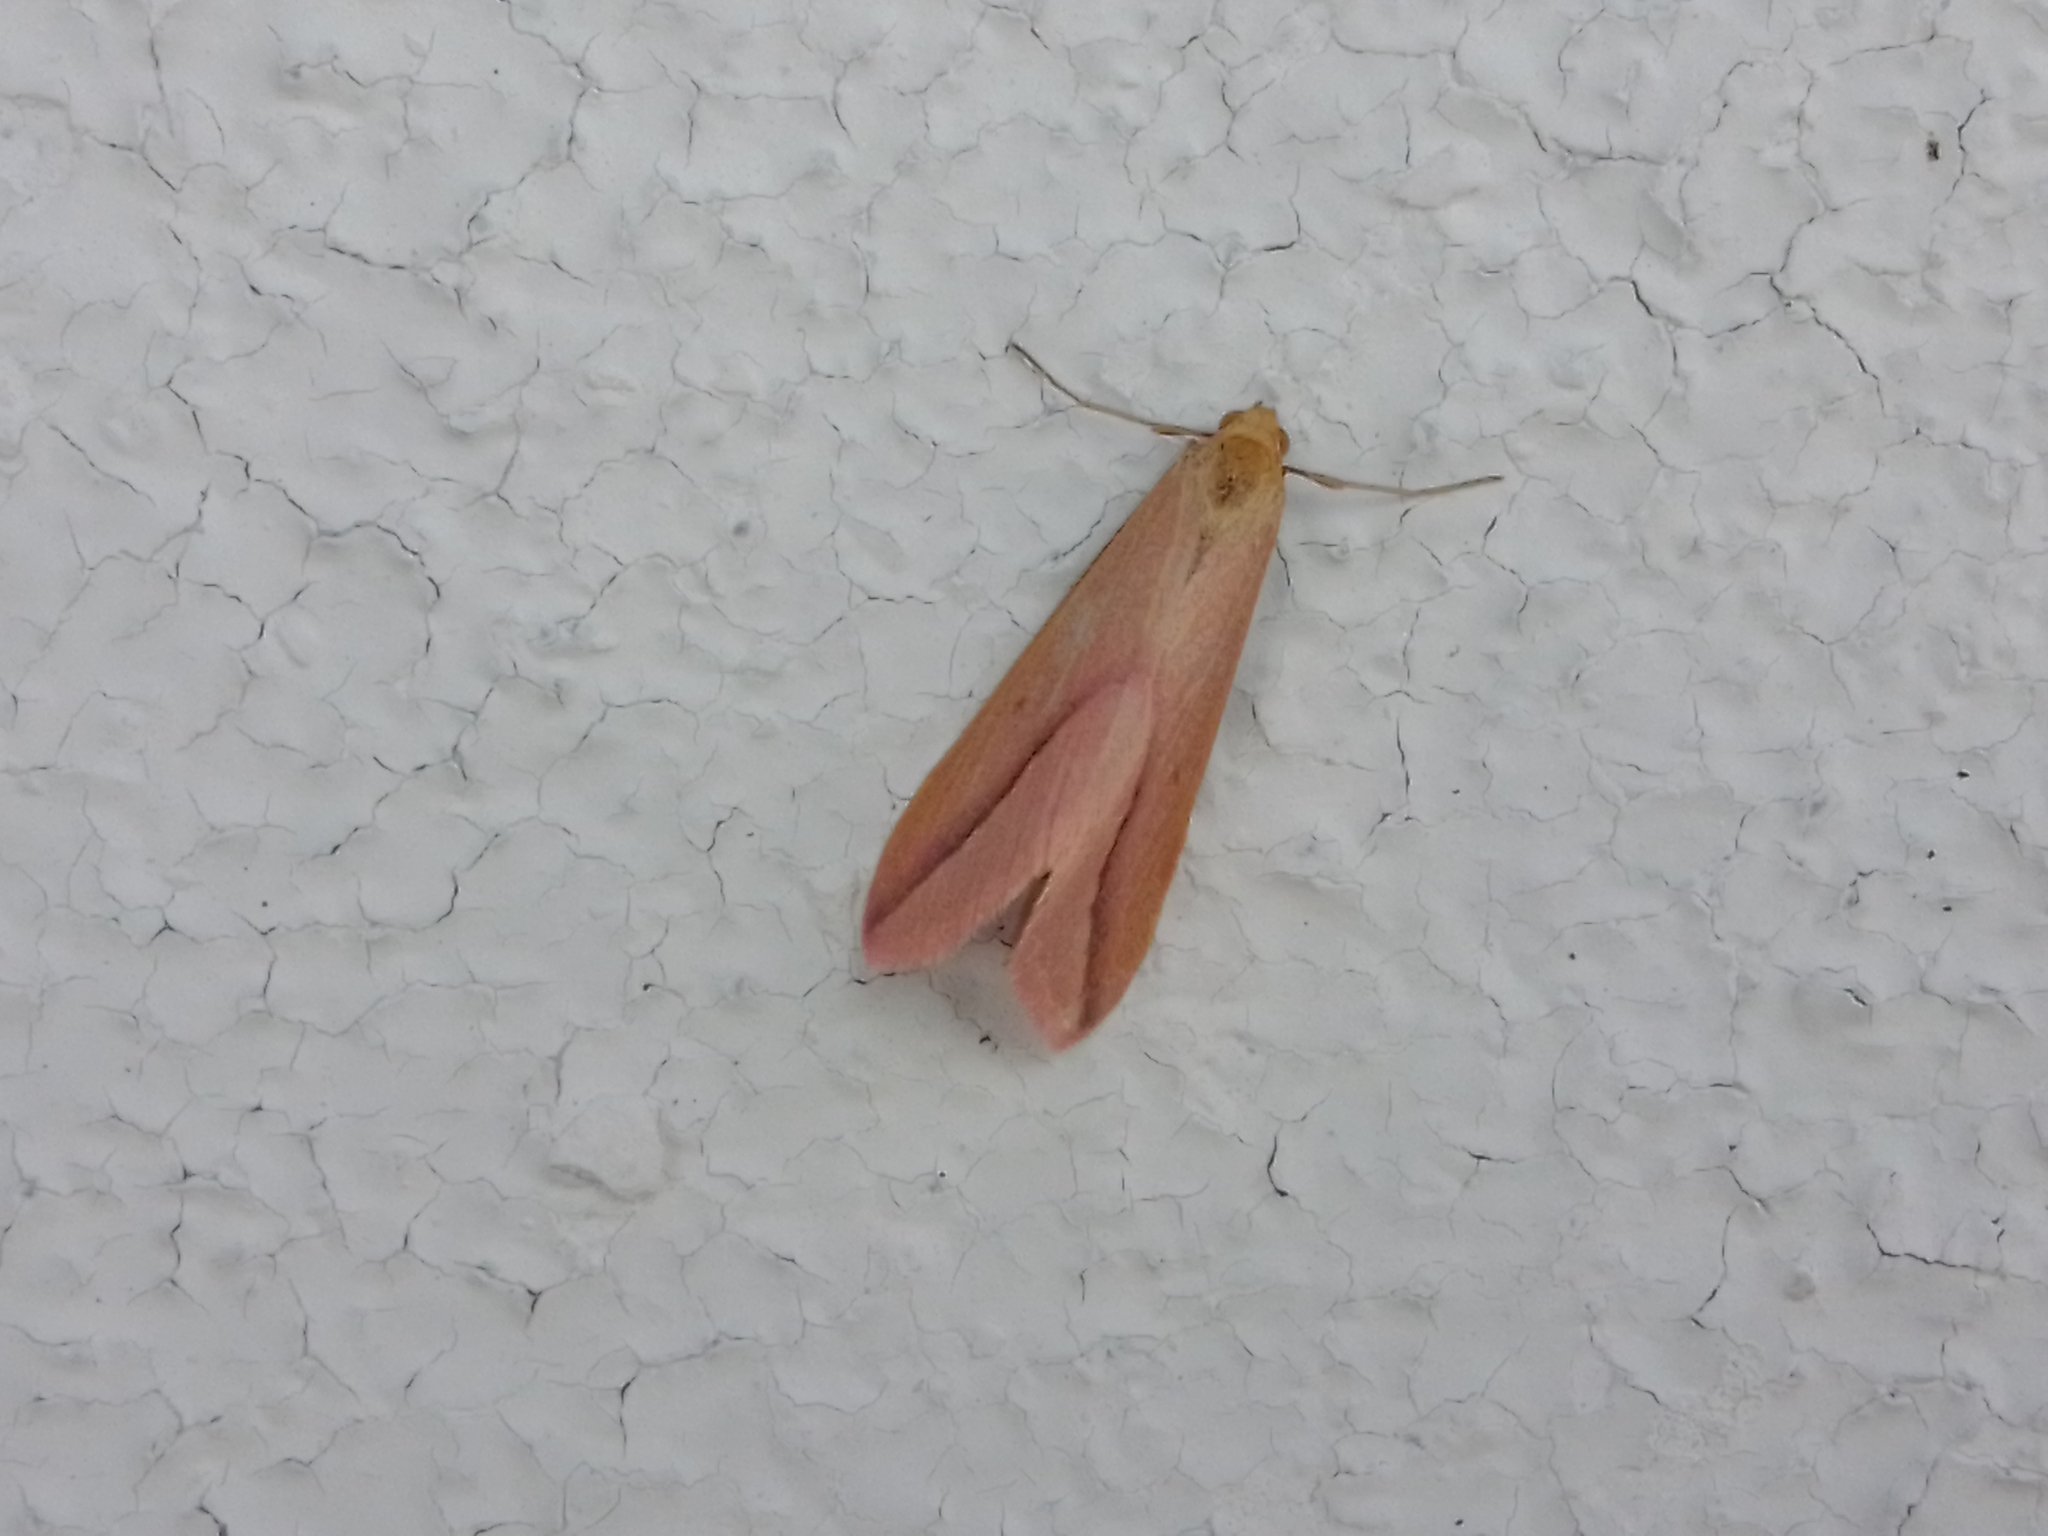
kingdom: Animalia
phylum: Arthropoda
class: Insecta
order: Lepidoptera
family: Geometridae
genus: Rhodometra
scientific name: Rhodometra sacraria
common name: Vestal
